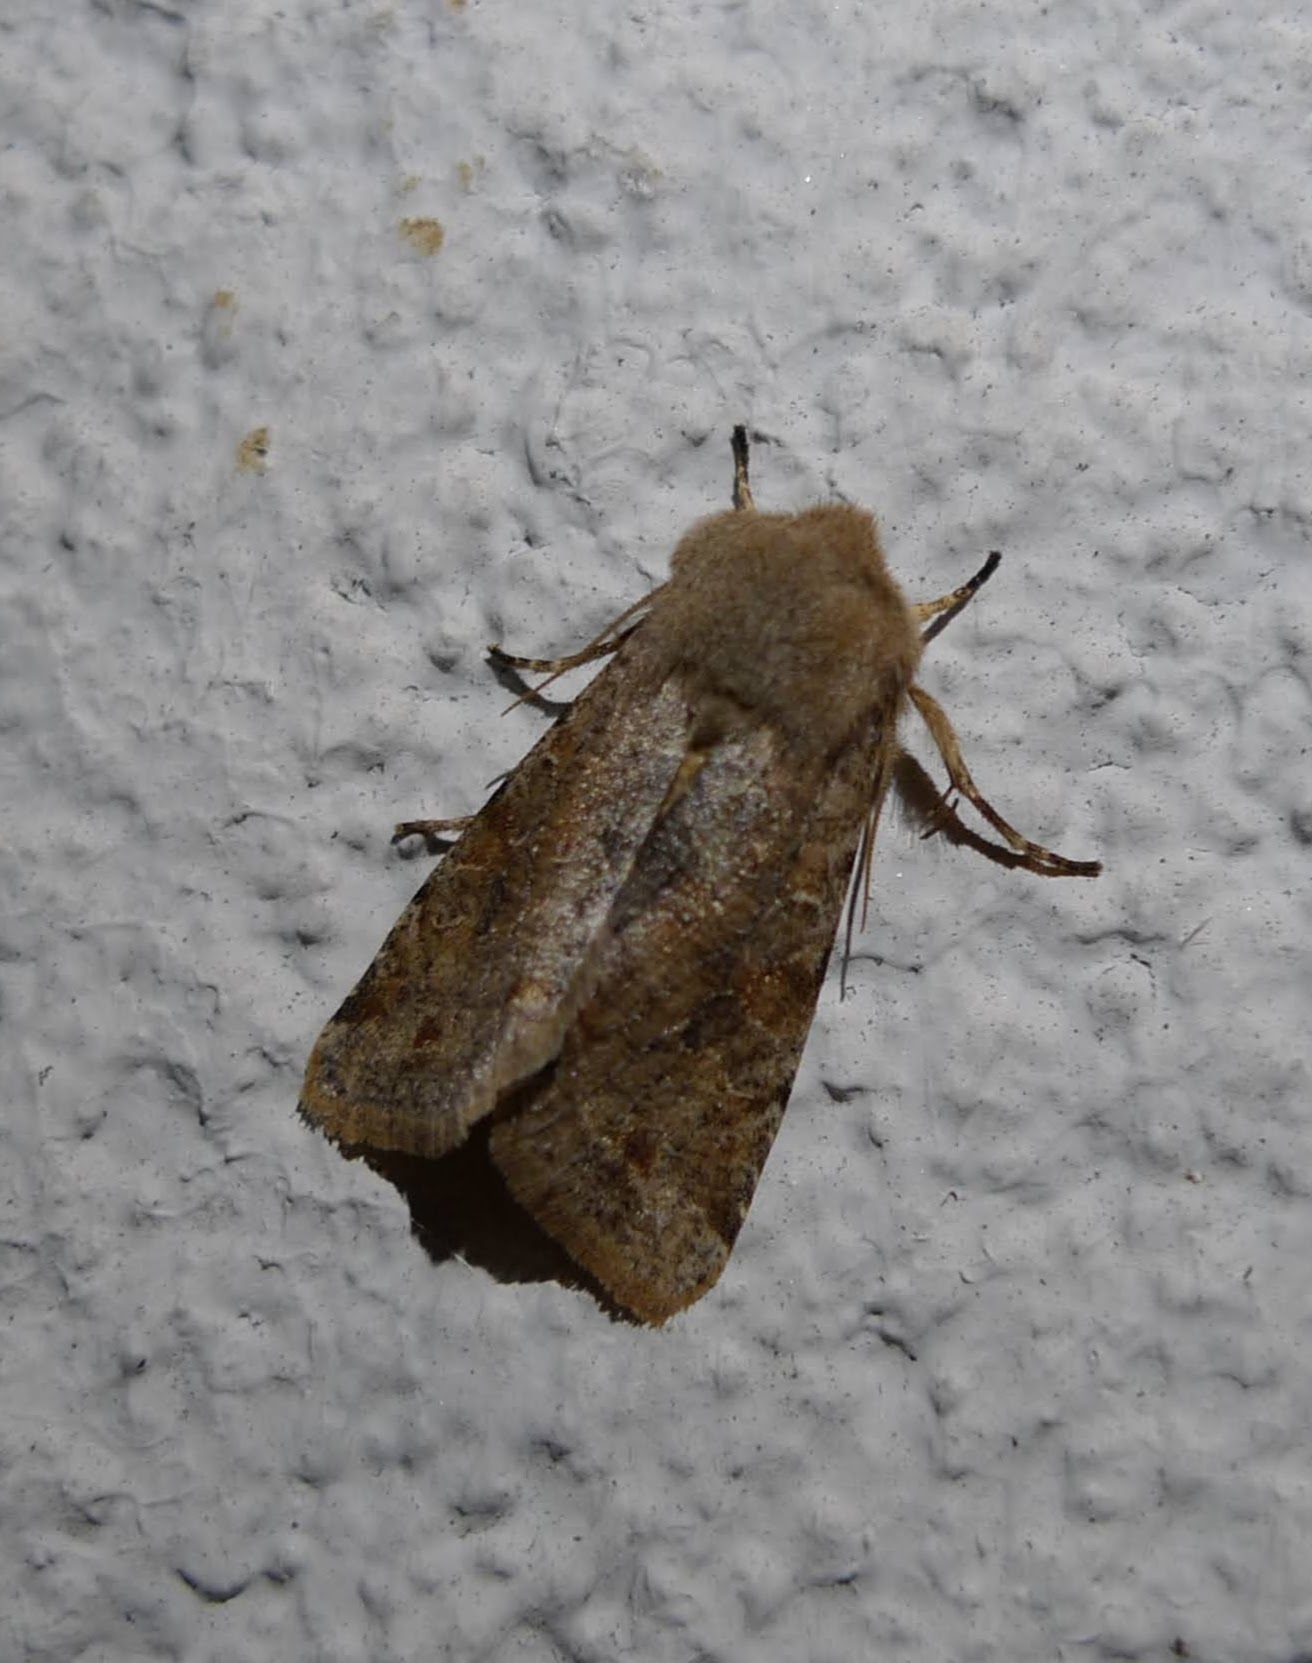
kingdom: Animalia
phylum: Arthropoda
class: Insecta
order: Lepidoptera
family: Noctuidae
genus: Orthosia
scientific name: Orthosia incerta
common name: Clouded drab
